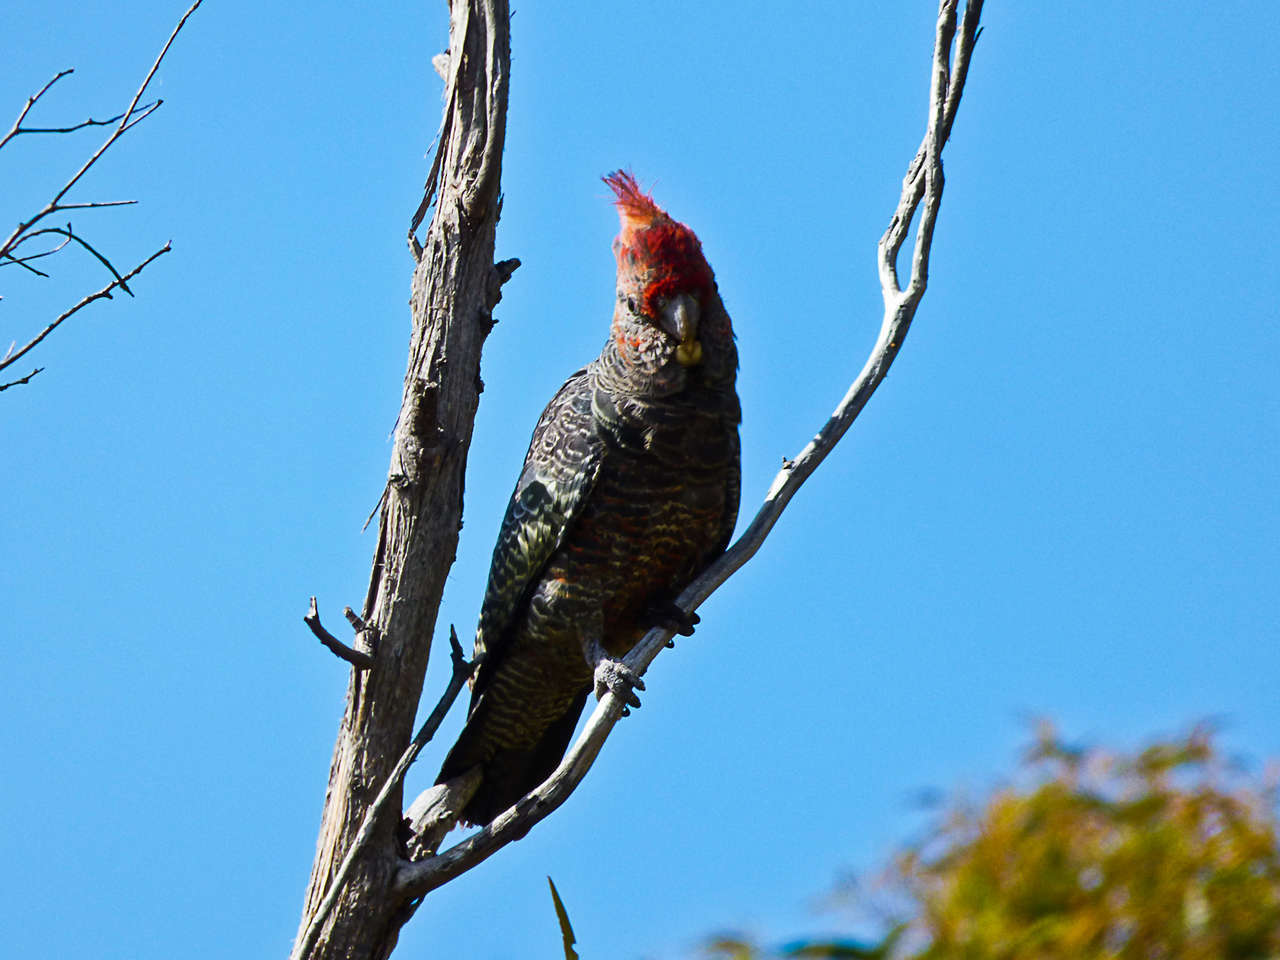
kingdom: Animalia
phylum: Chordata
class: Aves
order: Psittaciformes
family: Psittacidae
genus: Callocephalon
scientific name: Callocephalon fimbriatum
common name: Gang-gang cockatoo
